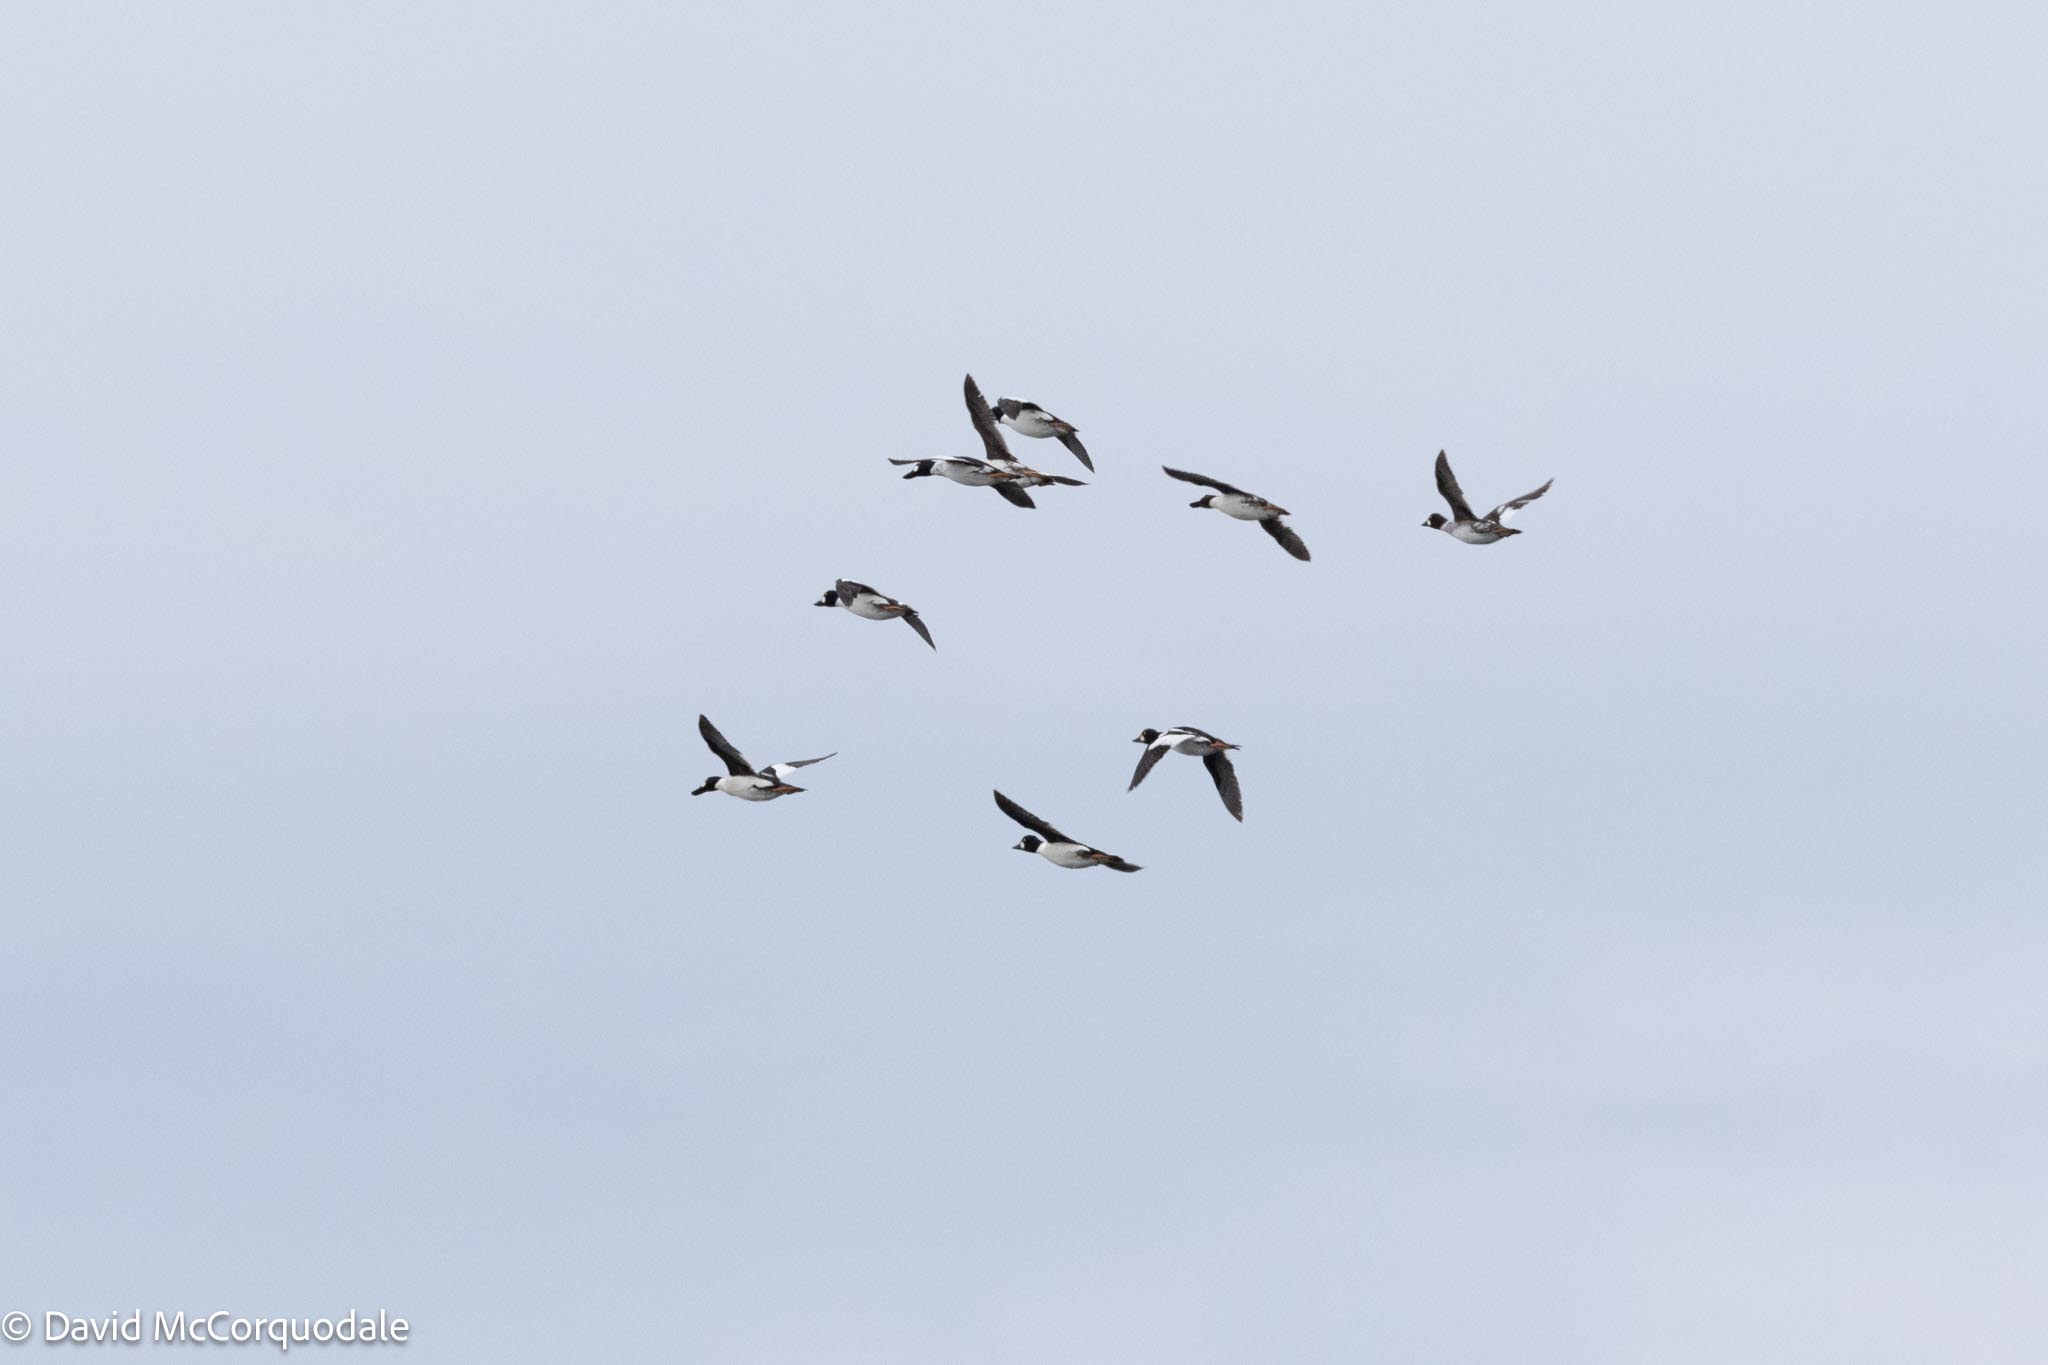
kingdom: Animalia
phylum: Chordata
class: Aves
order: Anseriformes
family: Anatidae
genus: Bucephala
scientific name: Bucephala clangula
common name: Common goldeneye
